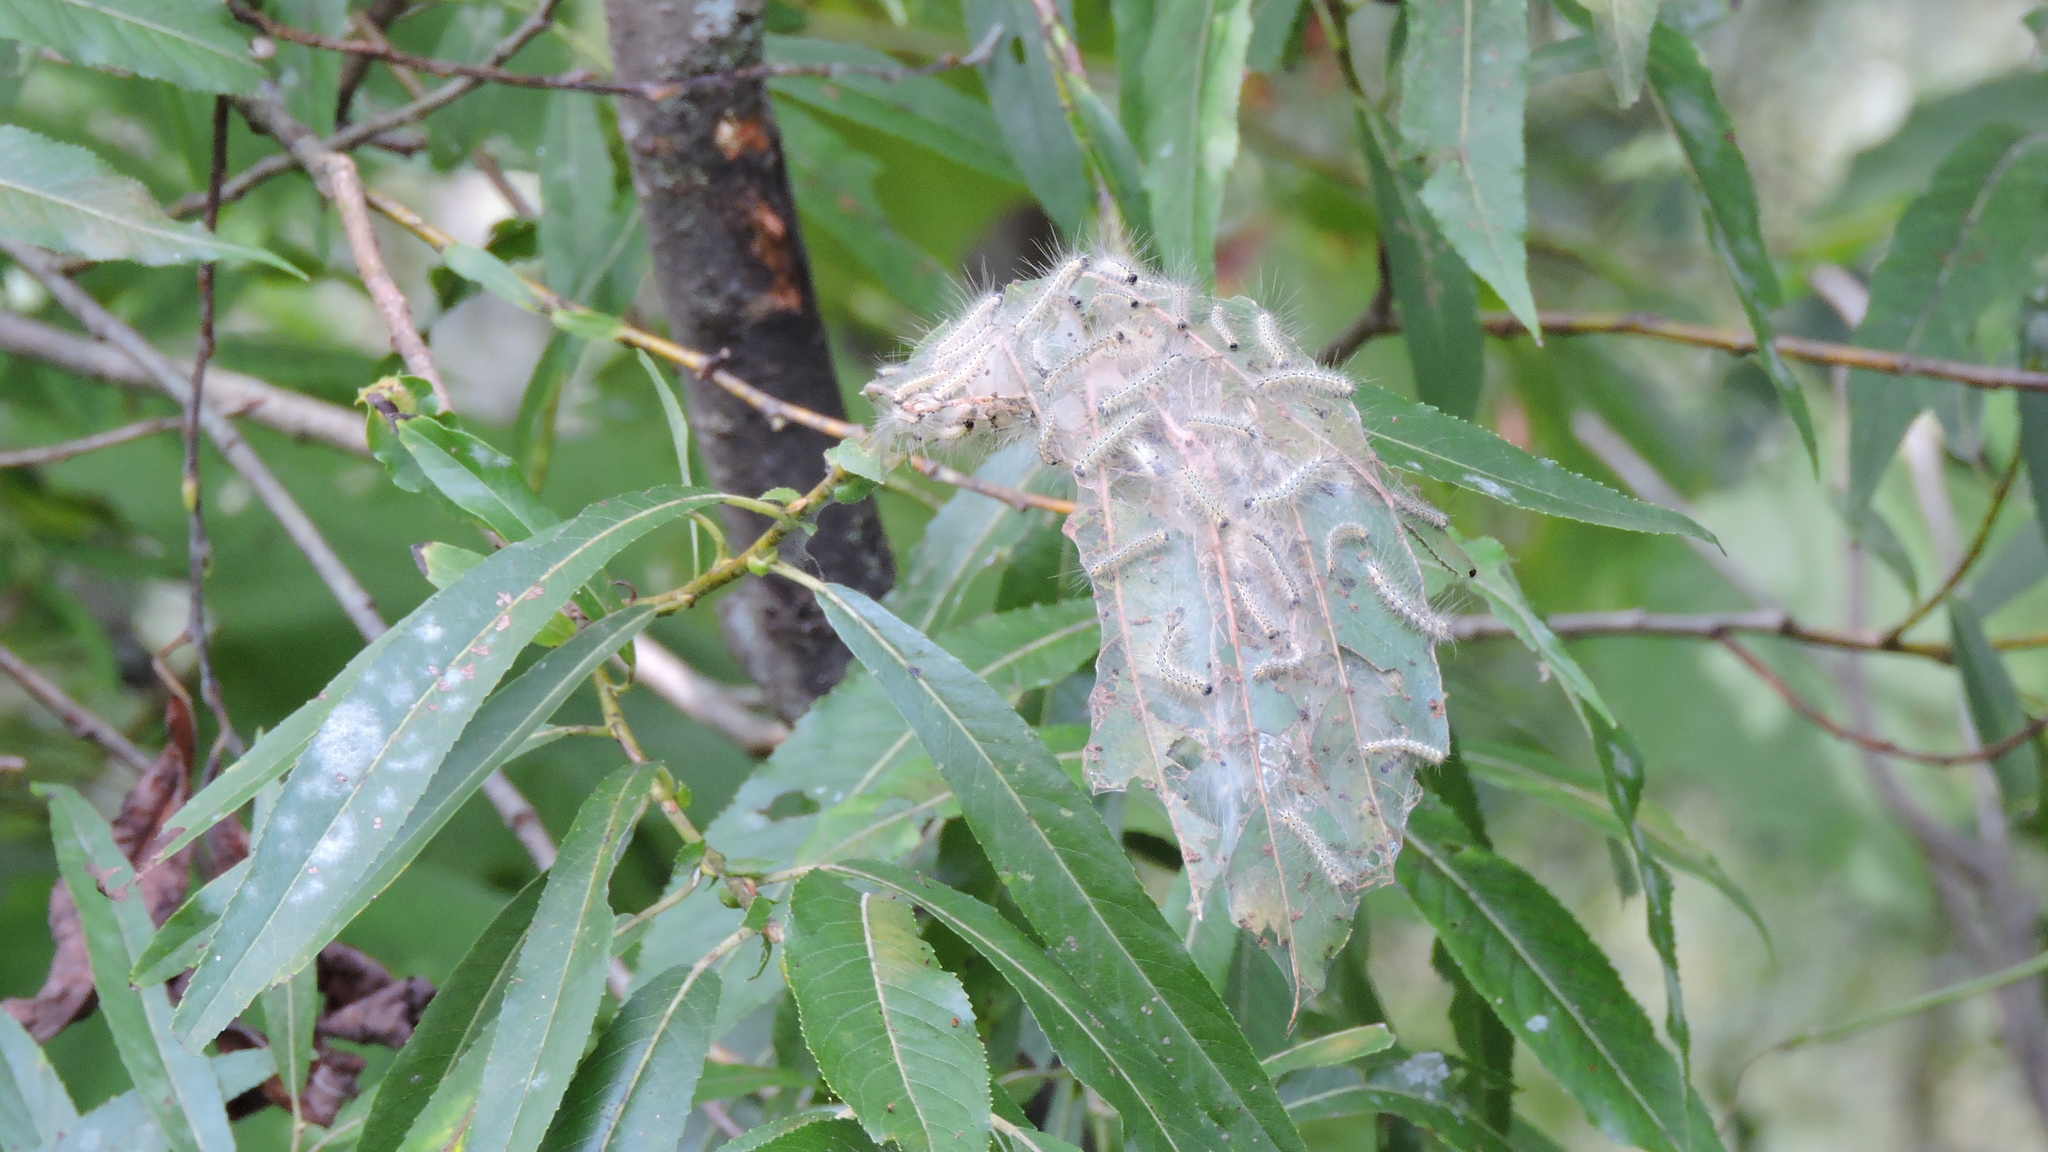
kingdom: Animalia
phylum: Arthropoda
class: Insecta
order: Lepidoptera
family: Erebidae
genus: Hyphantria
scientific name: Hyphantria cunea
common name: American white moth
